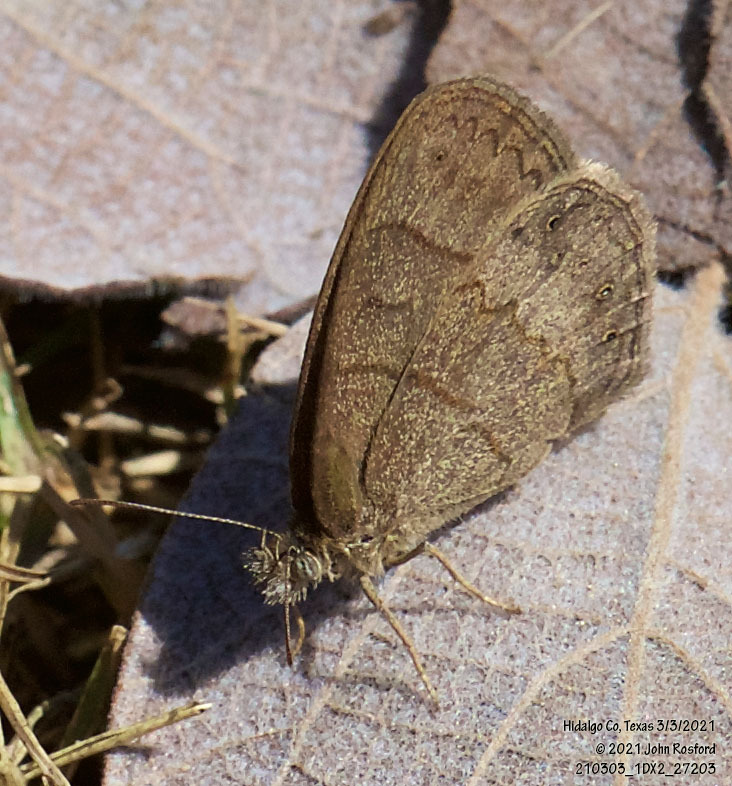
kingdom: Animalia
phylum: Arthropoda
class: Insecta
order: Lepidoptera
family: Nymphalidae
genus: Hermeuptychia
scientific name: Hermeuptychia hermybius
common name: South texas satyr
